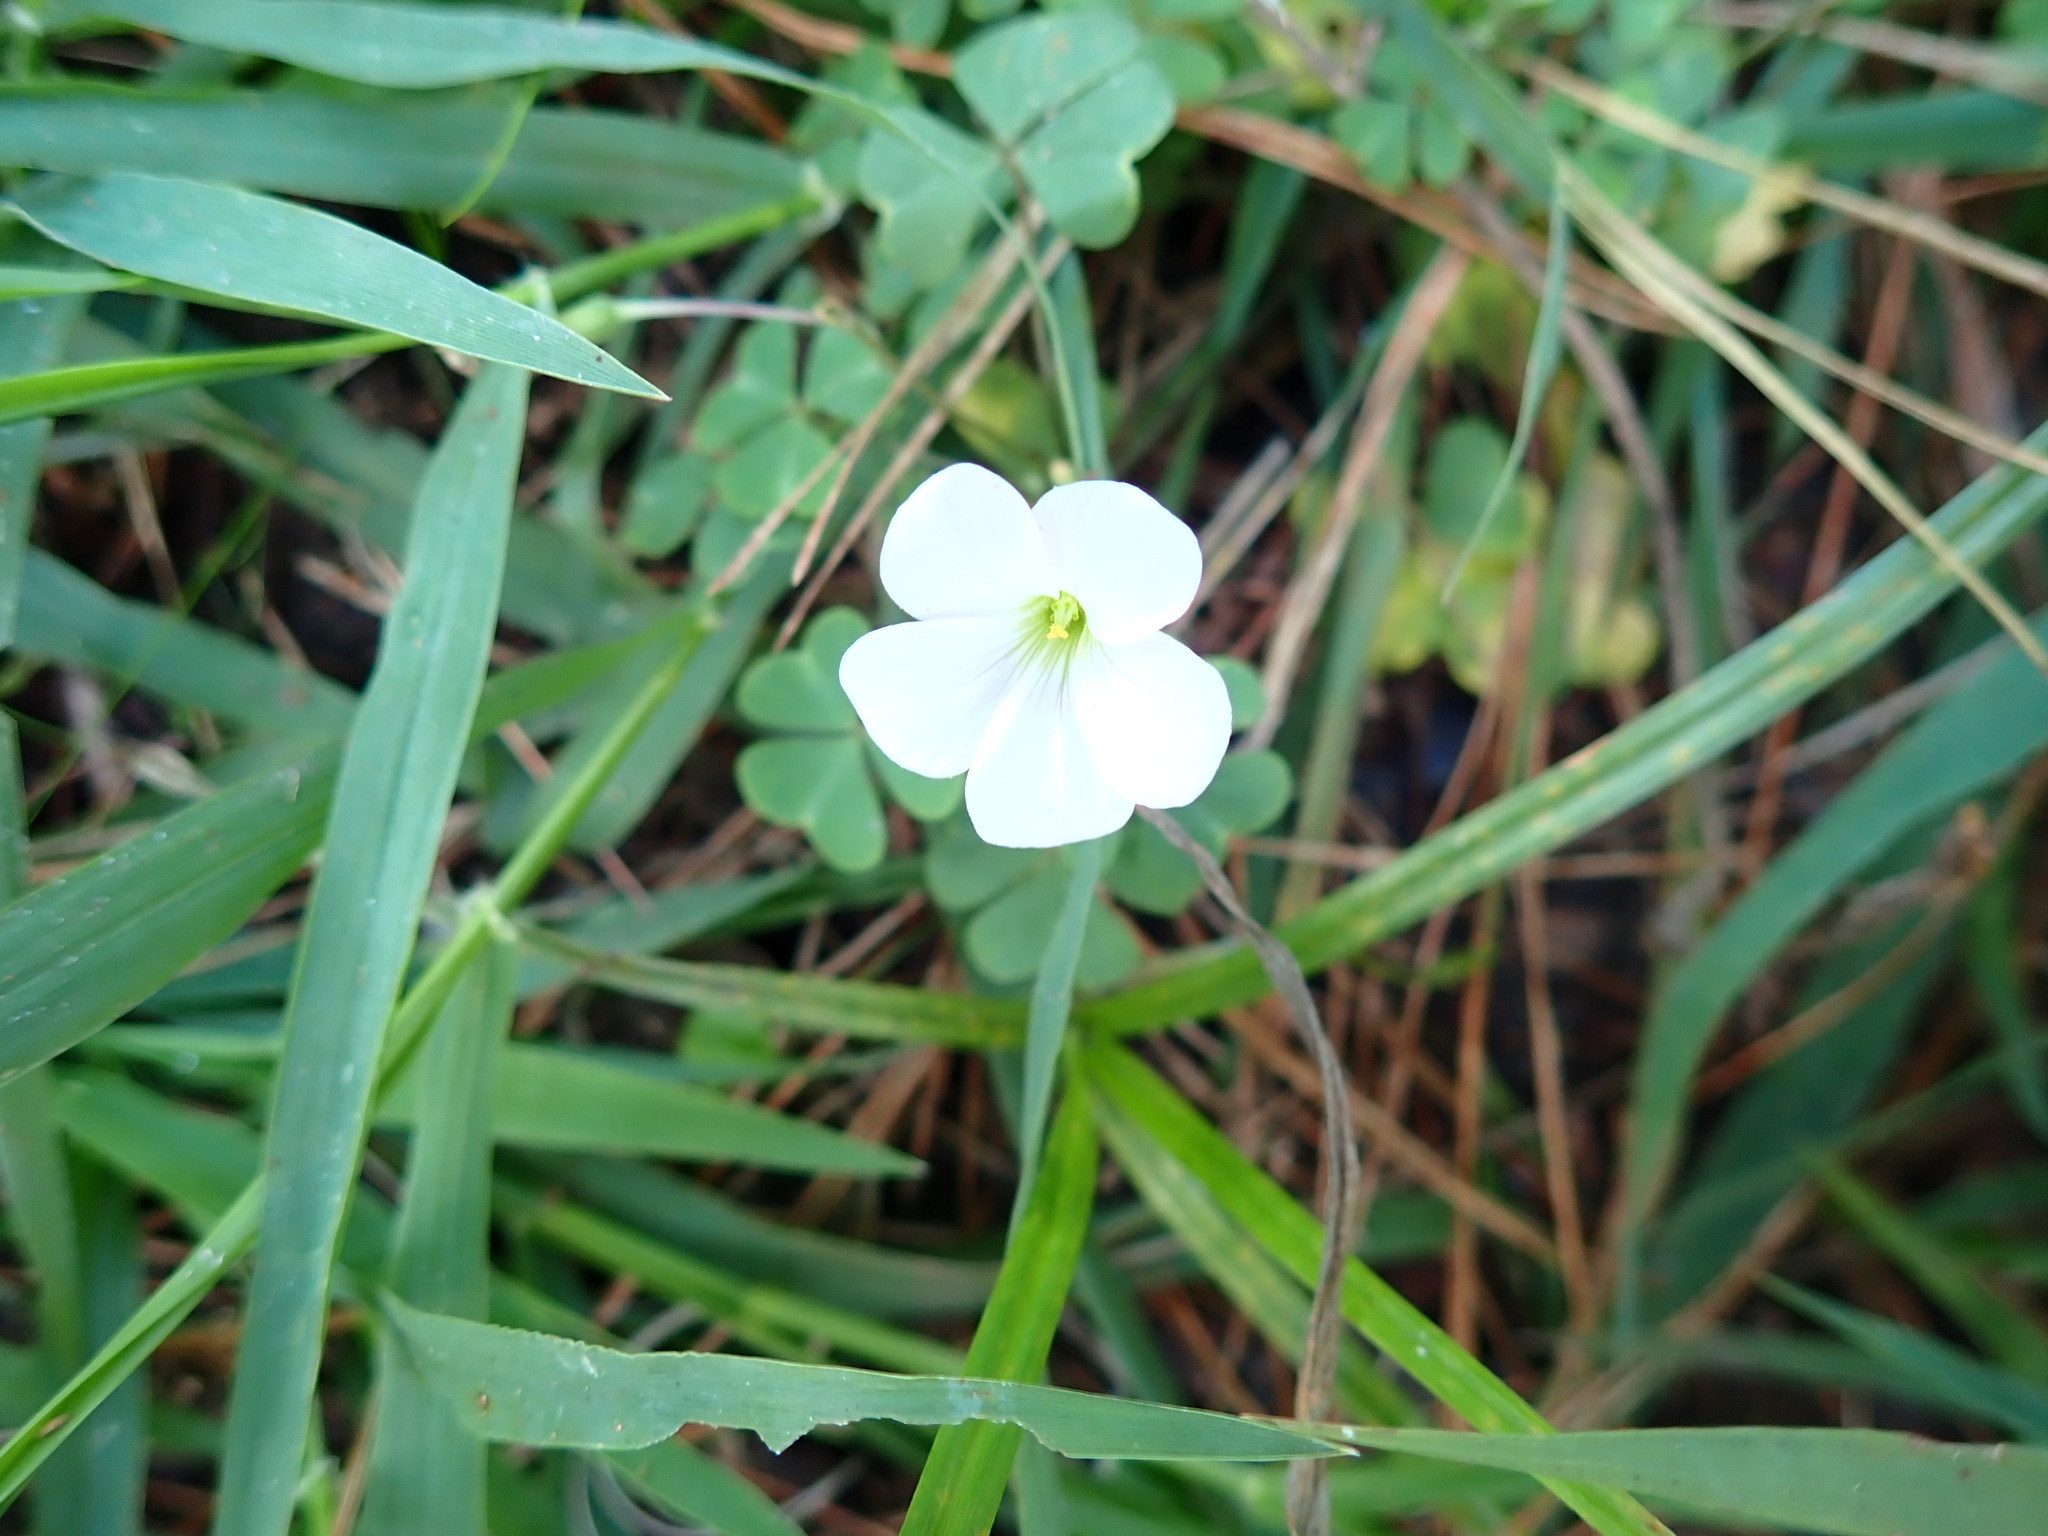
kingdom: Plantae
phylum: Tracheophyta
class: Magnoliopsida
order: Oxalidales
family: Oxalidaceae
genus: Oxalis
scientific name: Oxalis incarnata
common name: Pale pink-sorrel
